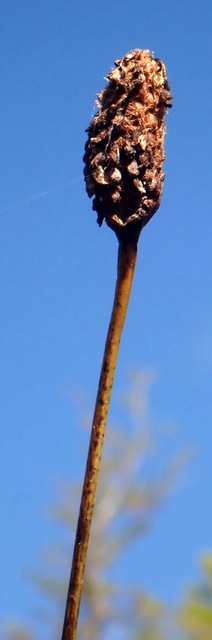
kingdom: Plantae
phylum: Tracheophyta
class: Liliopsida
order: Poales
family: Xyridaceae
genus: Xyris
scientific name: Xyris fimbriata
